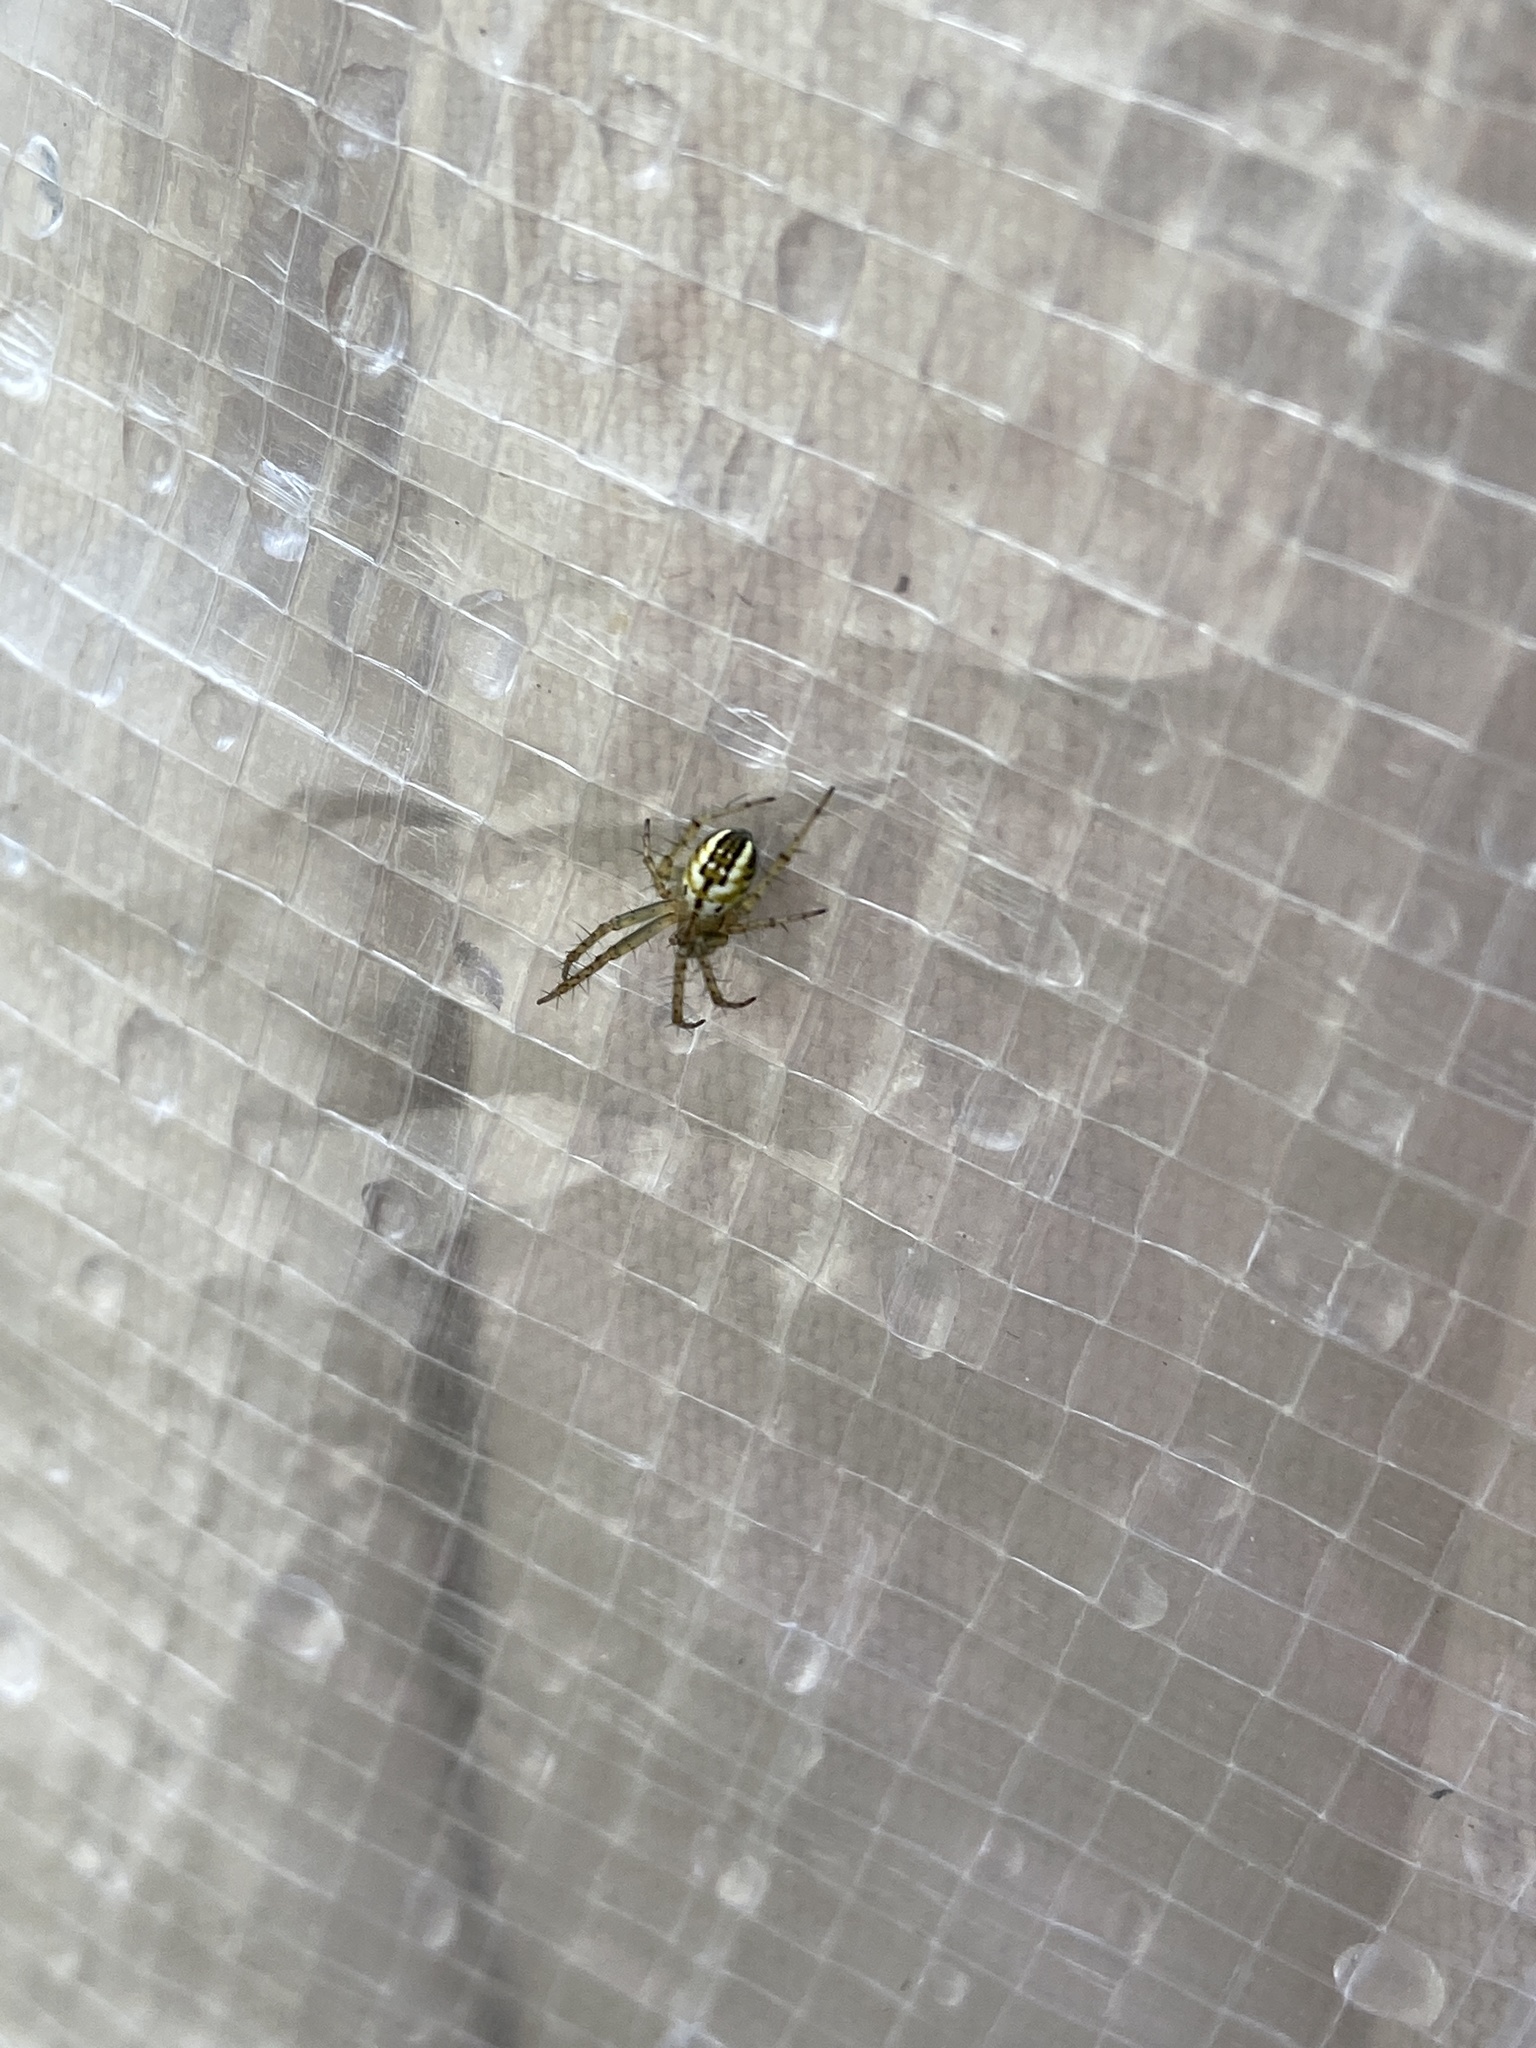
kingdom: Animalia
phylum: Arthropoda
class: Arachnida
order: Araneae
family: Araneidae
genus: Mangora
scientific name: Mangora acalypha
